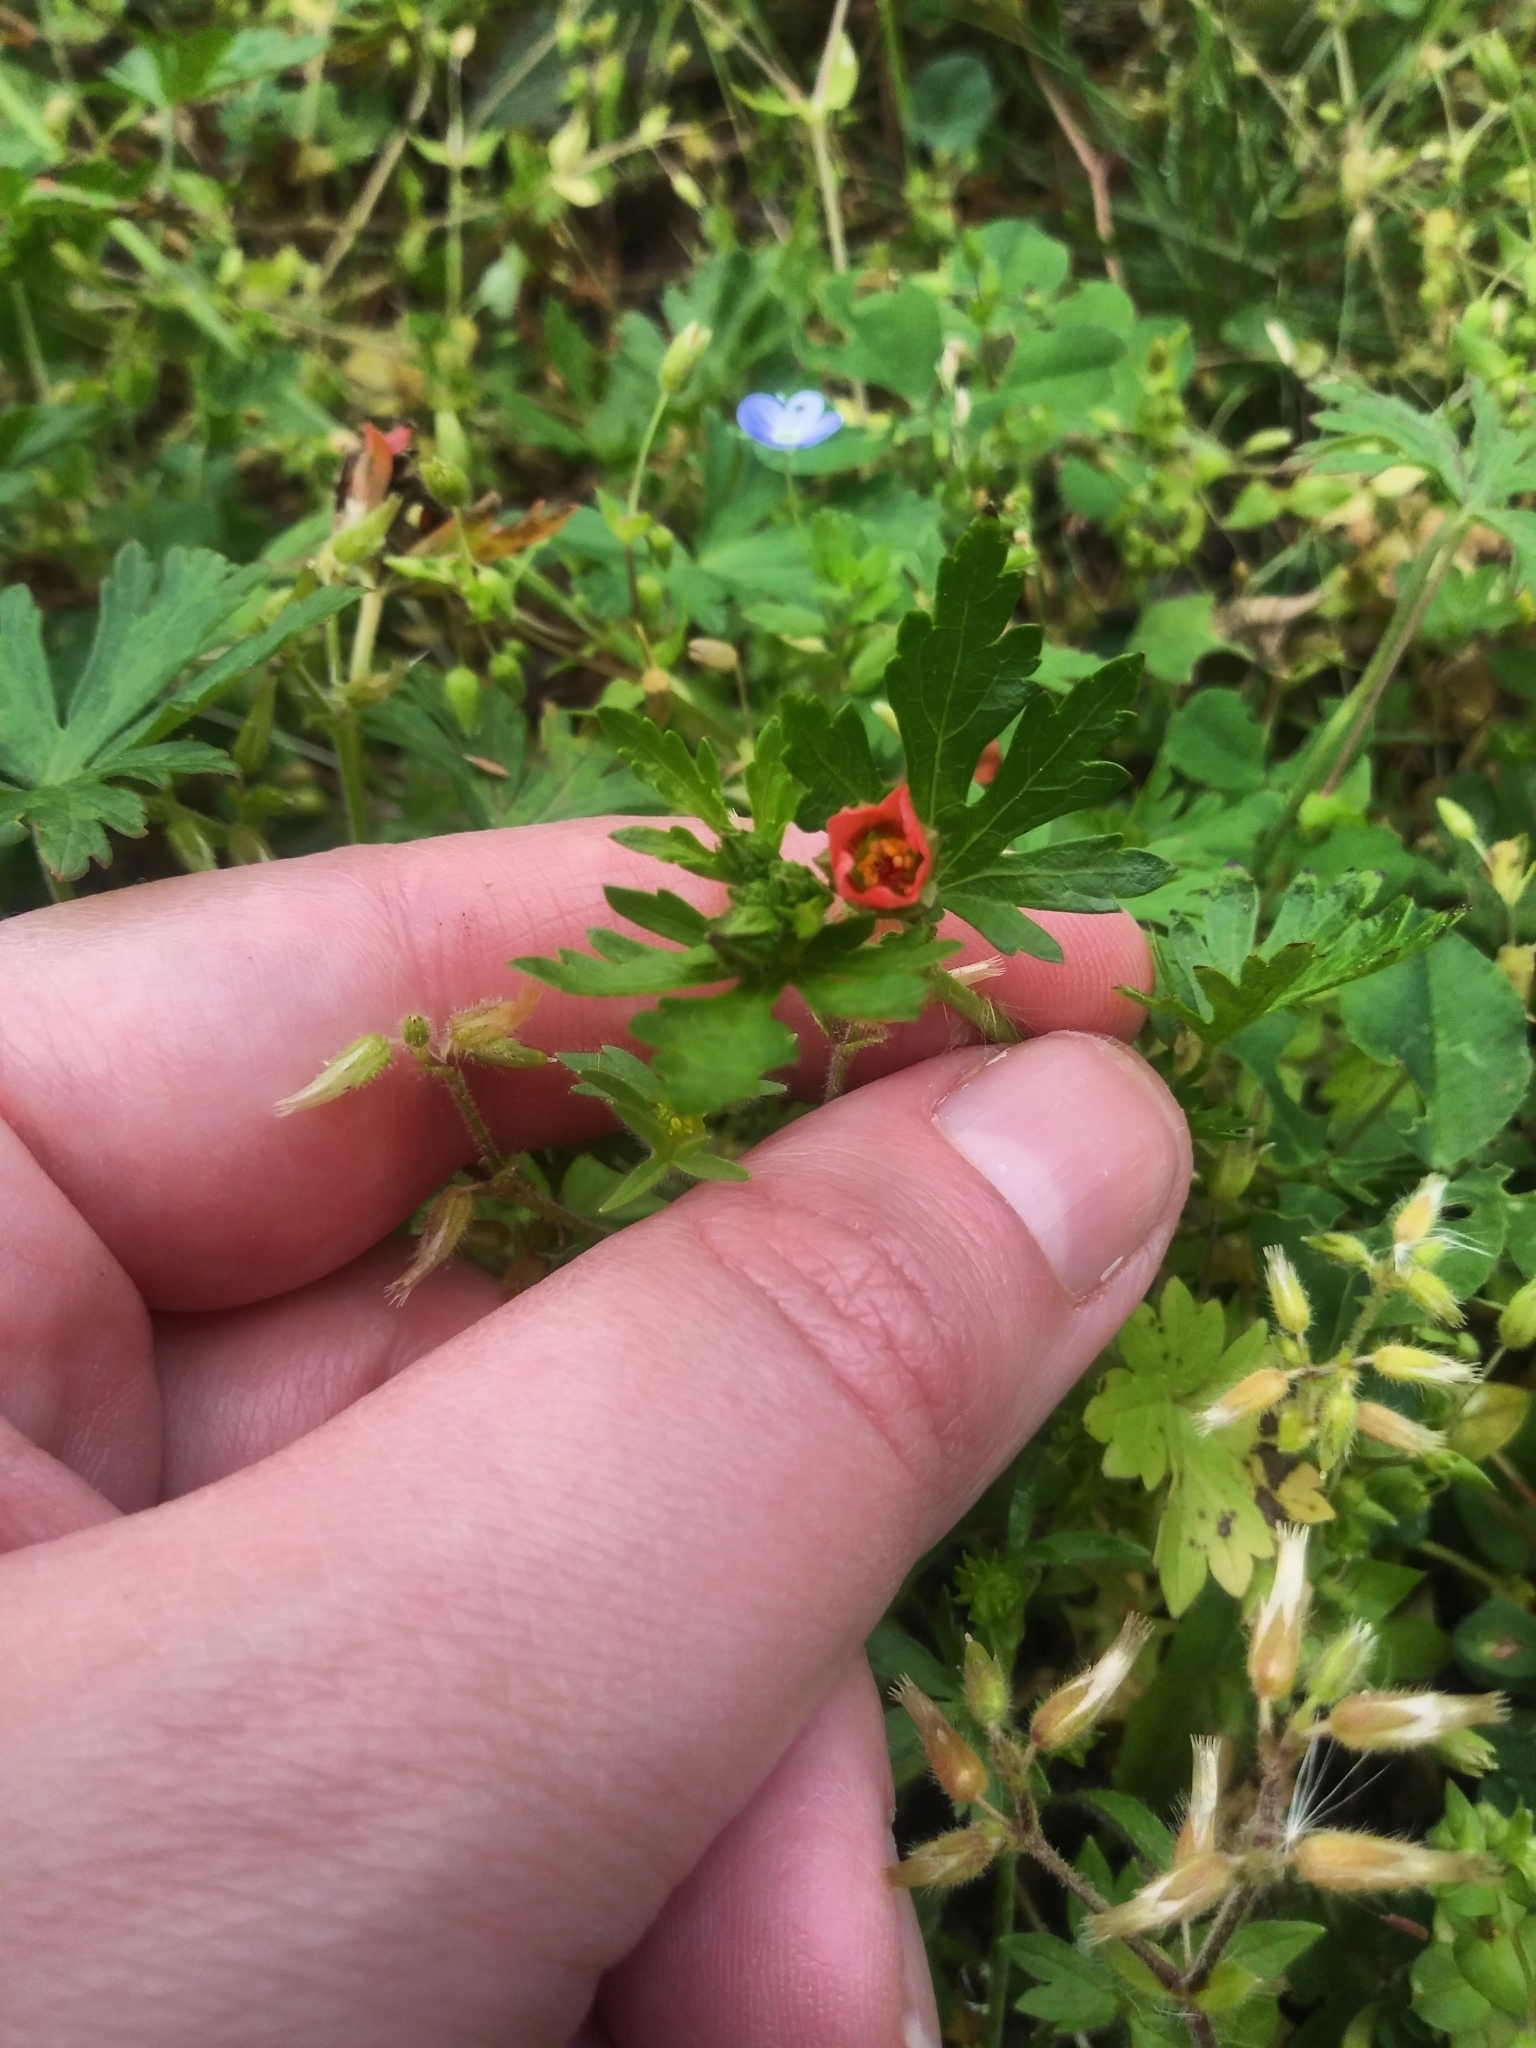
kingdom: Plantae
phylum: Tracheophyta
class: Magnoliopsida
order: Malvales
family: Malvaceae
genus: Modiola
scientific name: Modiola caroliniana
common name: Carolina bristlemallow
